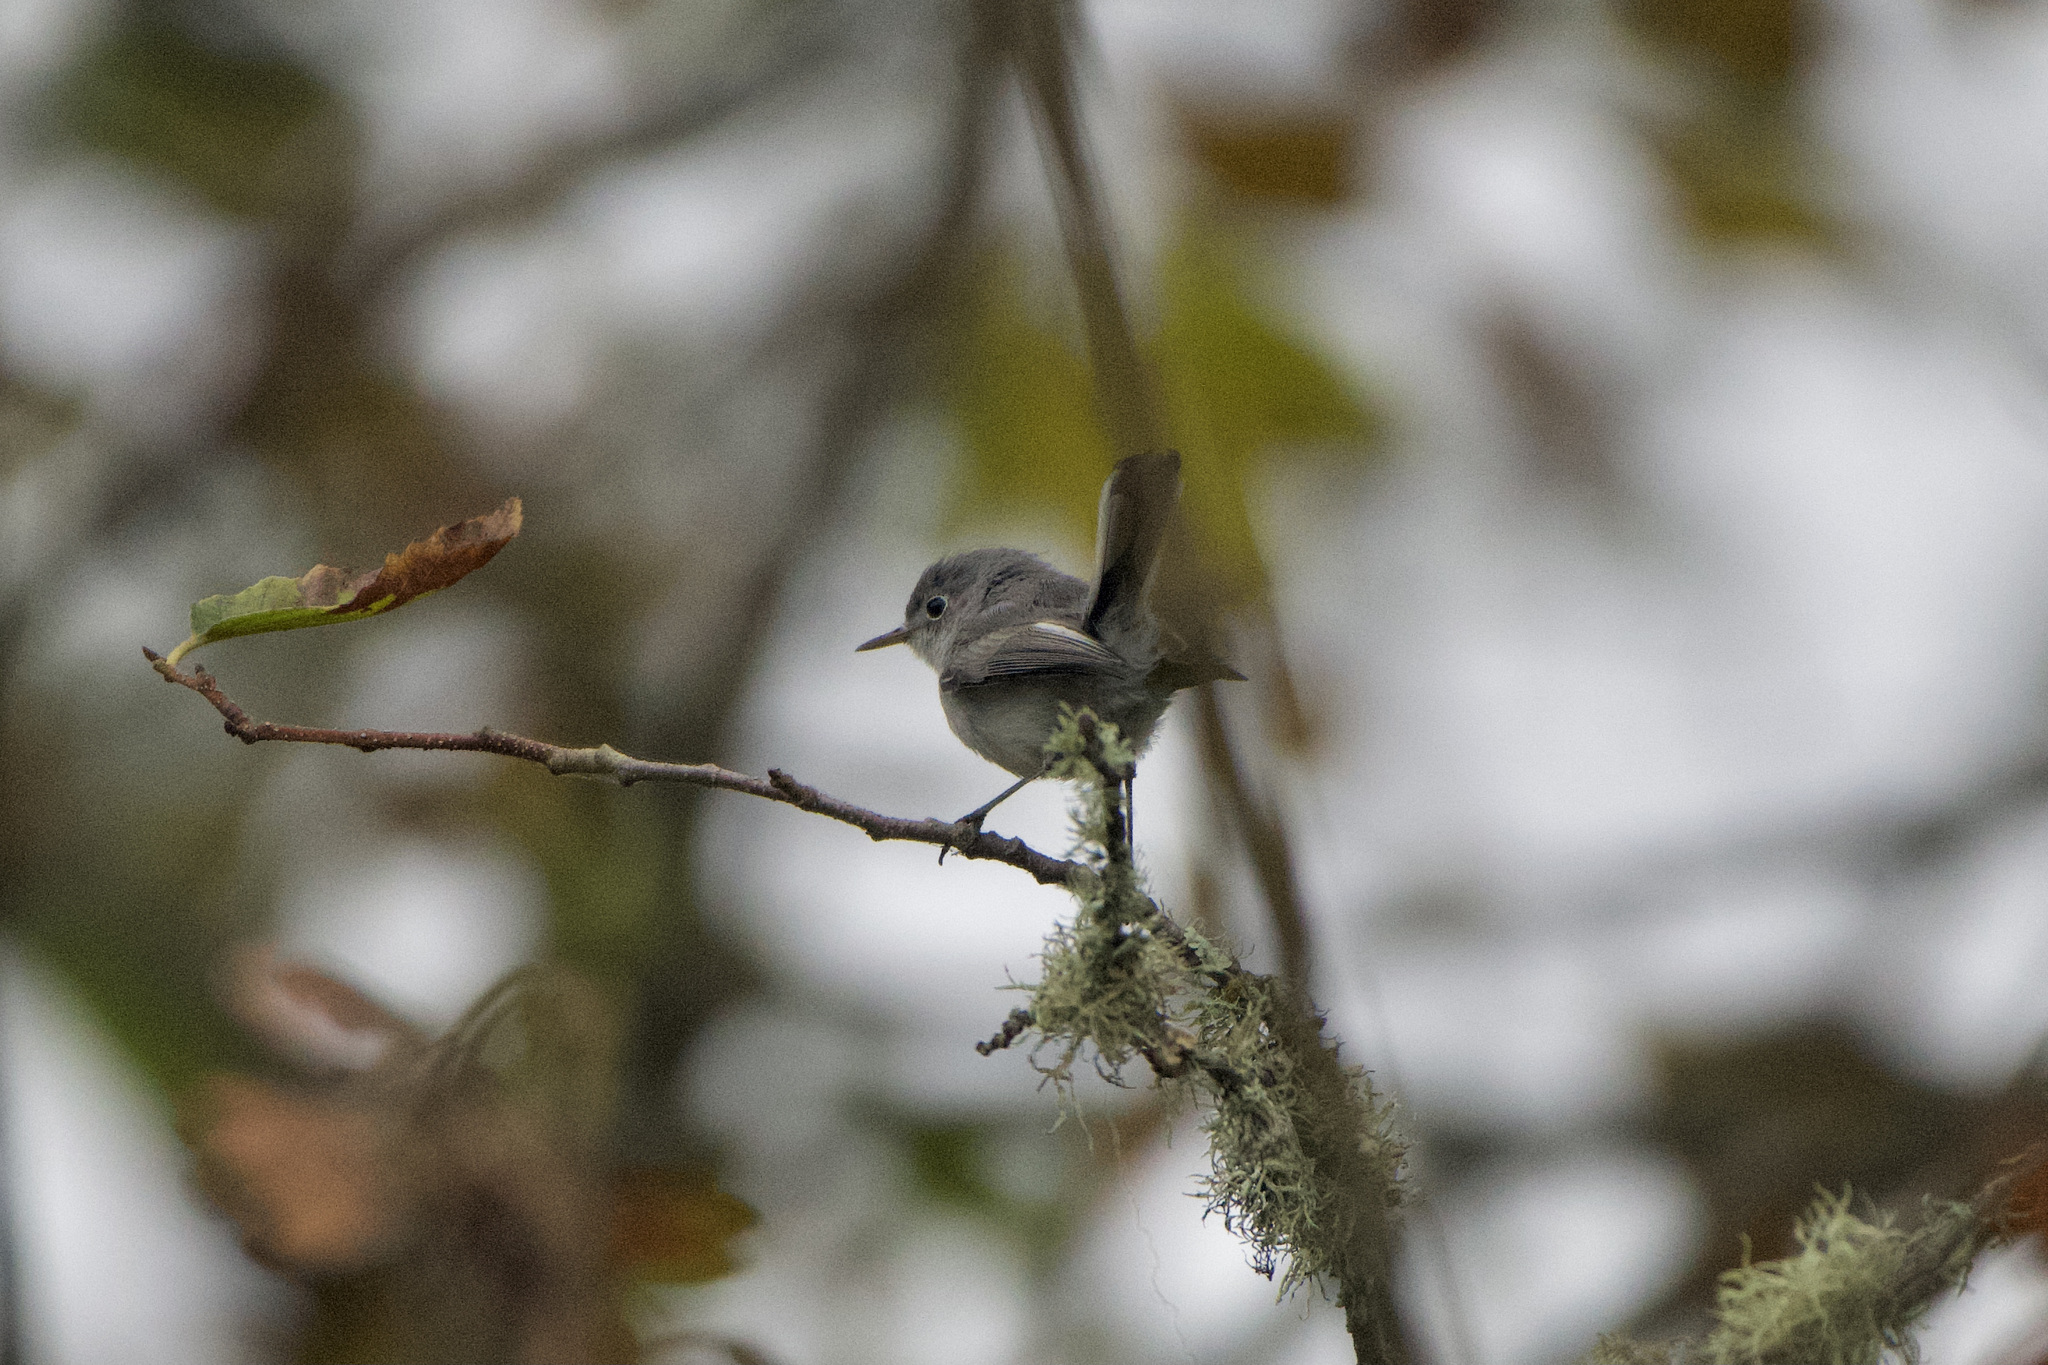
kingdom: Animalia
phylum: Chordata
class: Aves
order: Passeriformes
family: Polioptilidae
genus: Polioptila
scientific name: Polioptila caerulea
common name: Blue-gray gnatcatcher
